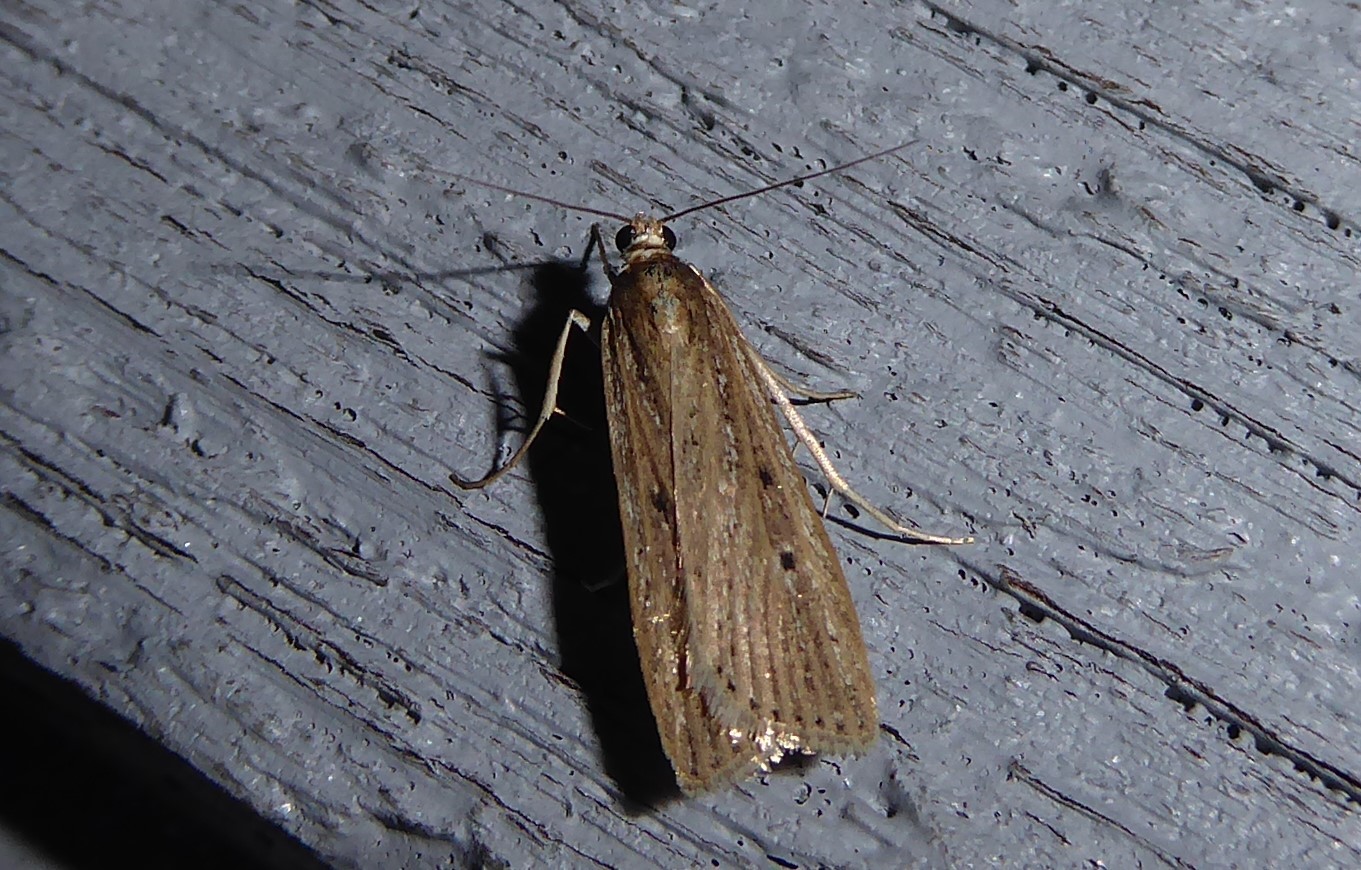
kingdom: Animalia
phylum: Arthropoda
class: Insecta
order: Lepidoptera
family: Crambidae
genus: Eudonia
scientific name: Eudonia sabulosella
